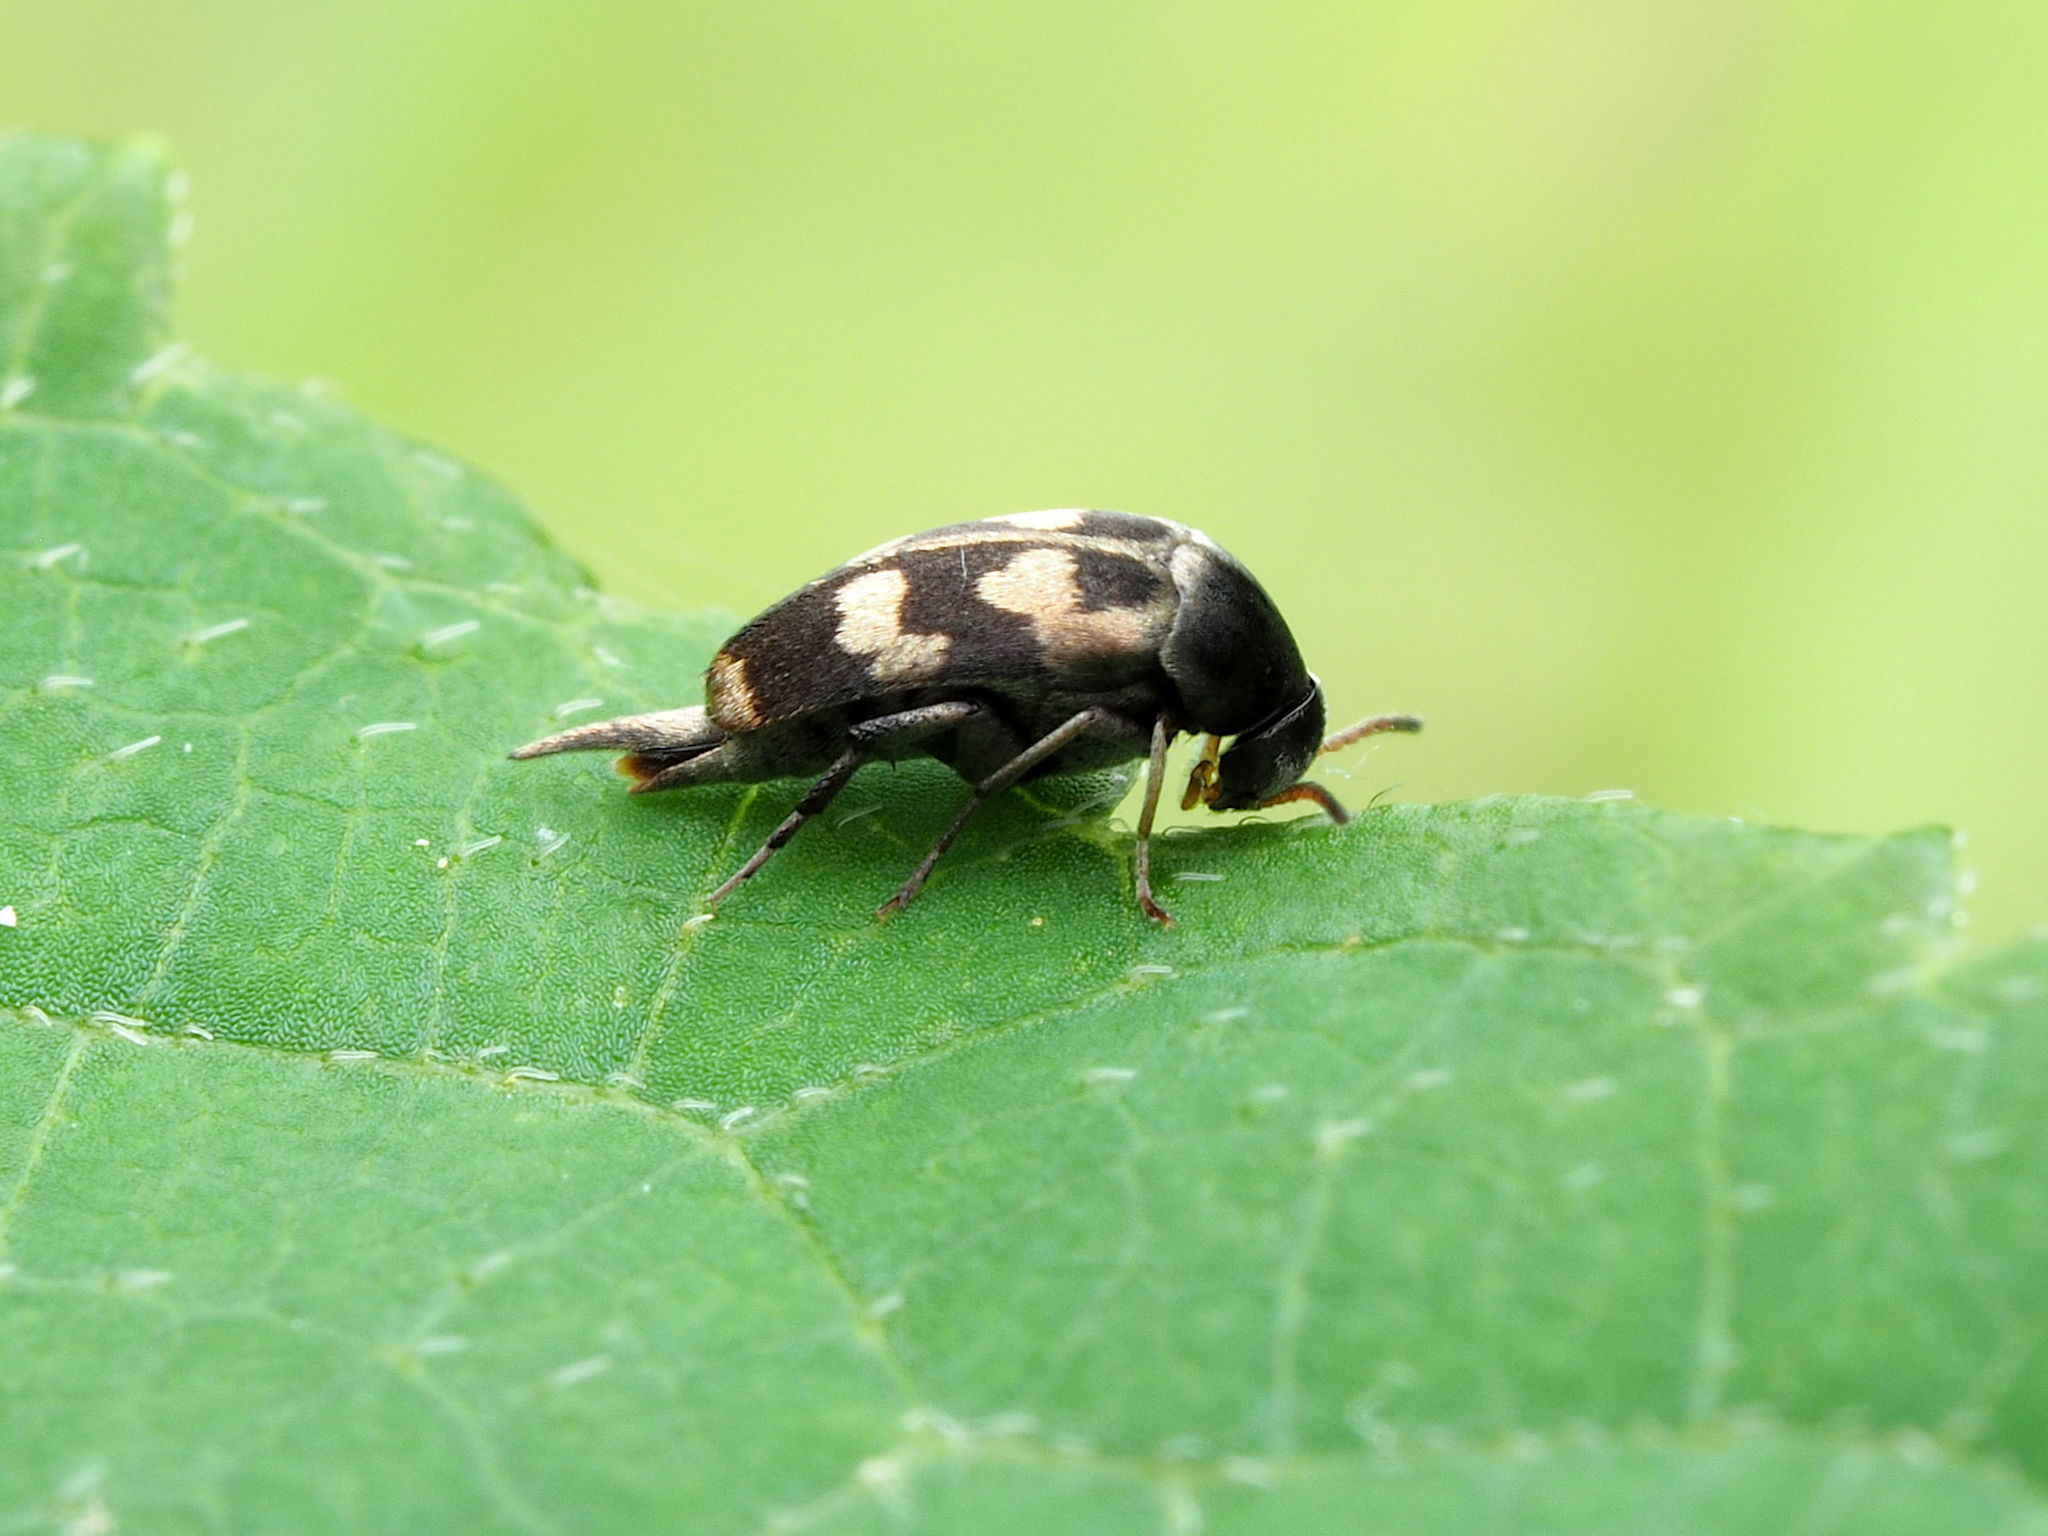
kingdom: Animalia
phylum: Arthropoda
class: Insecta
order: Coleoptera
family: Mordellidae
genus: Falsomordellistena
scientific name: Falsomordellistena pubescens
